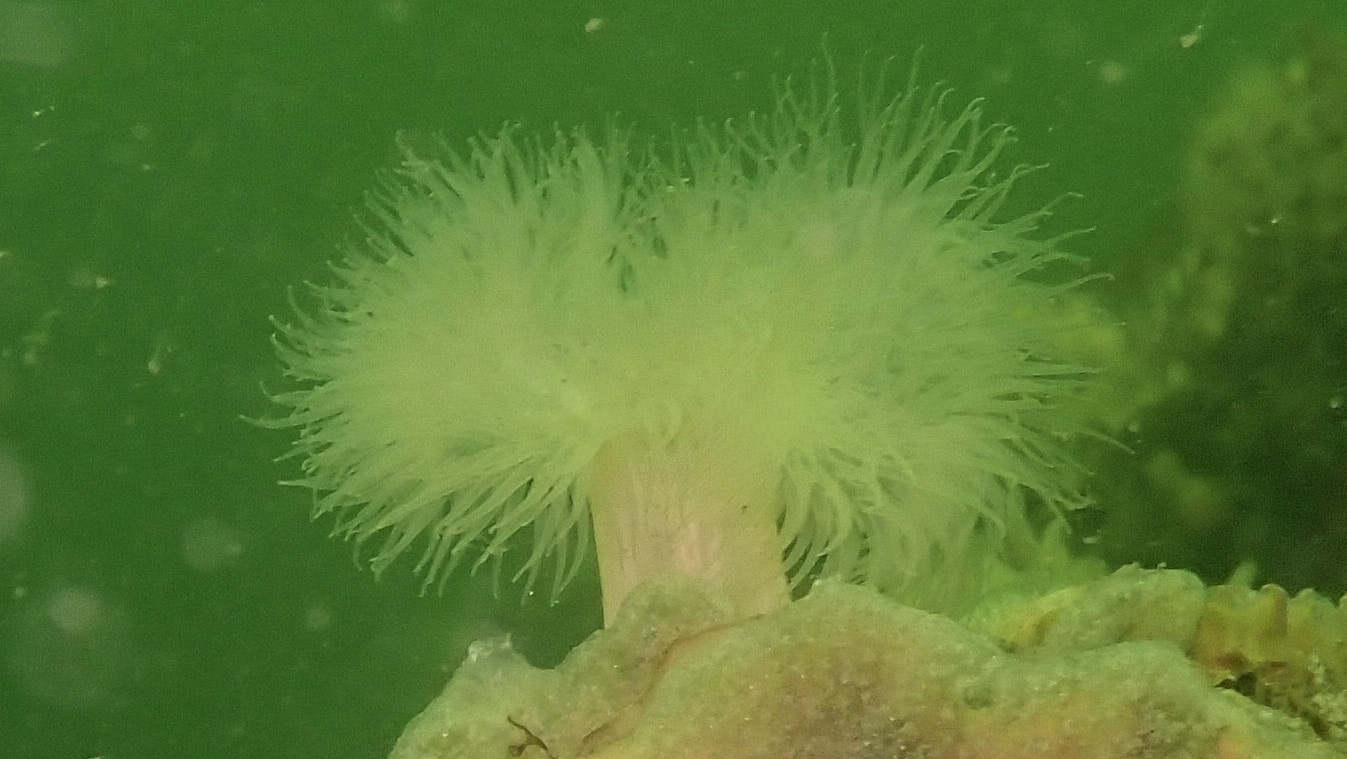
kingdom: Animalia
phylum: Cnidaria
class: Anthozoa
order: Actiniaria
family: Metridiidae
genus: Metridium
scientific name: Metridium senile
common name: Clonal plumose anemone
